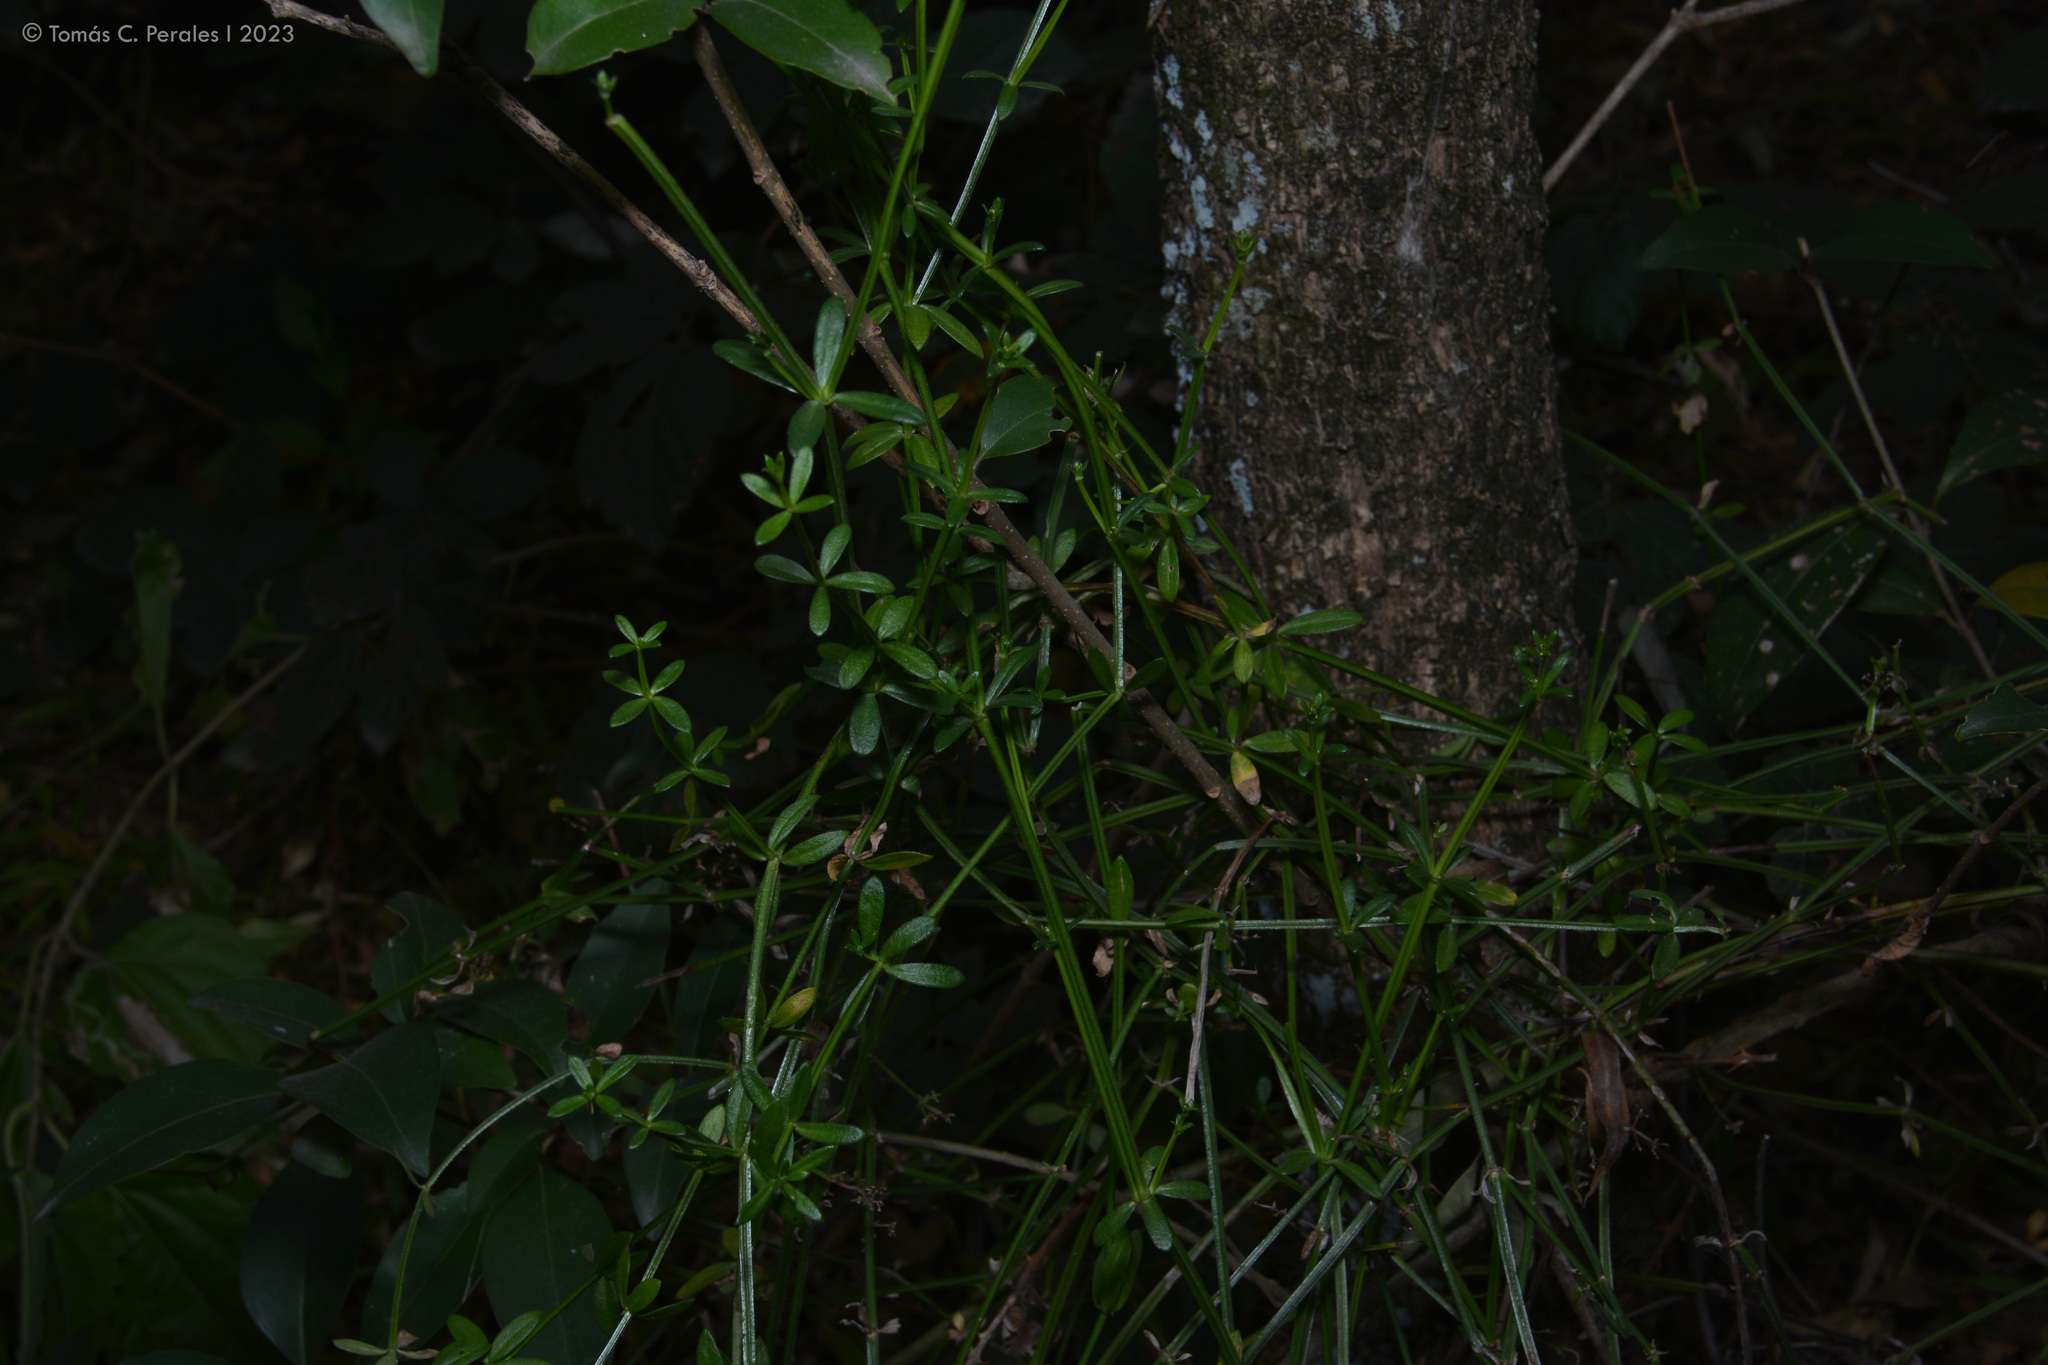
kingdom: Plantae
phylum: Tracheophyta
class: Magnoliopsida
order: Gentianales
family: Rubiaceae
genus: Galium
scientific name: Galium latoramosum
